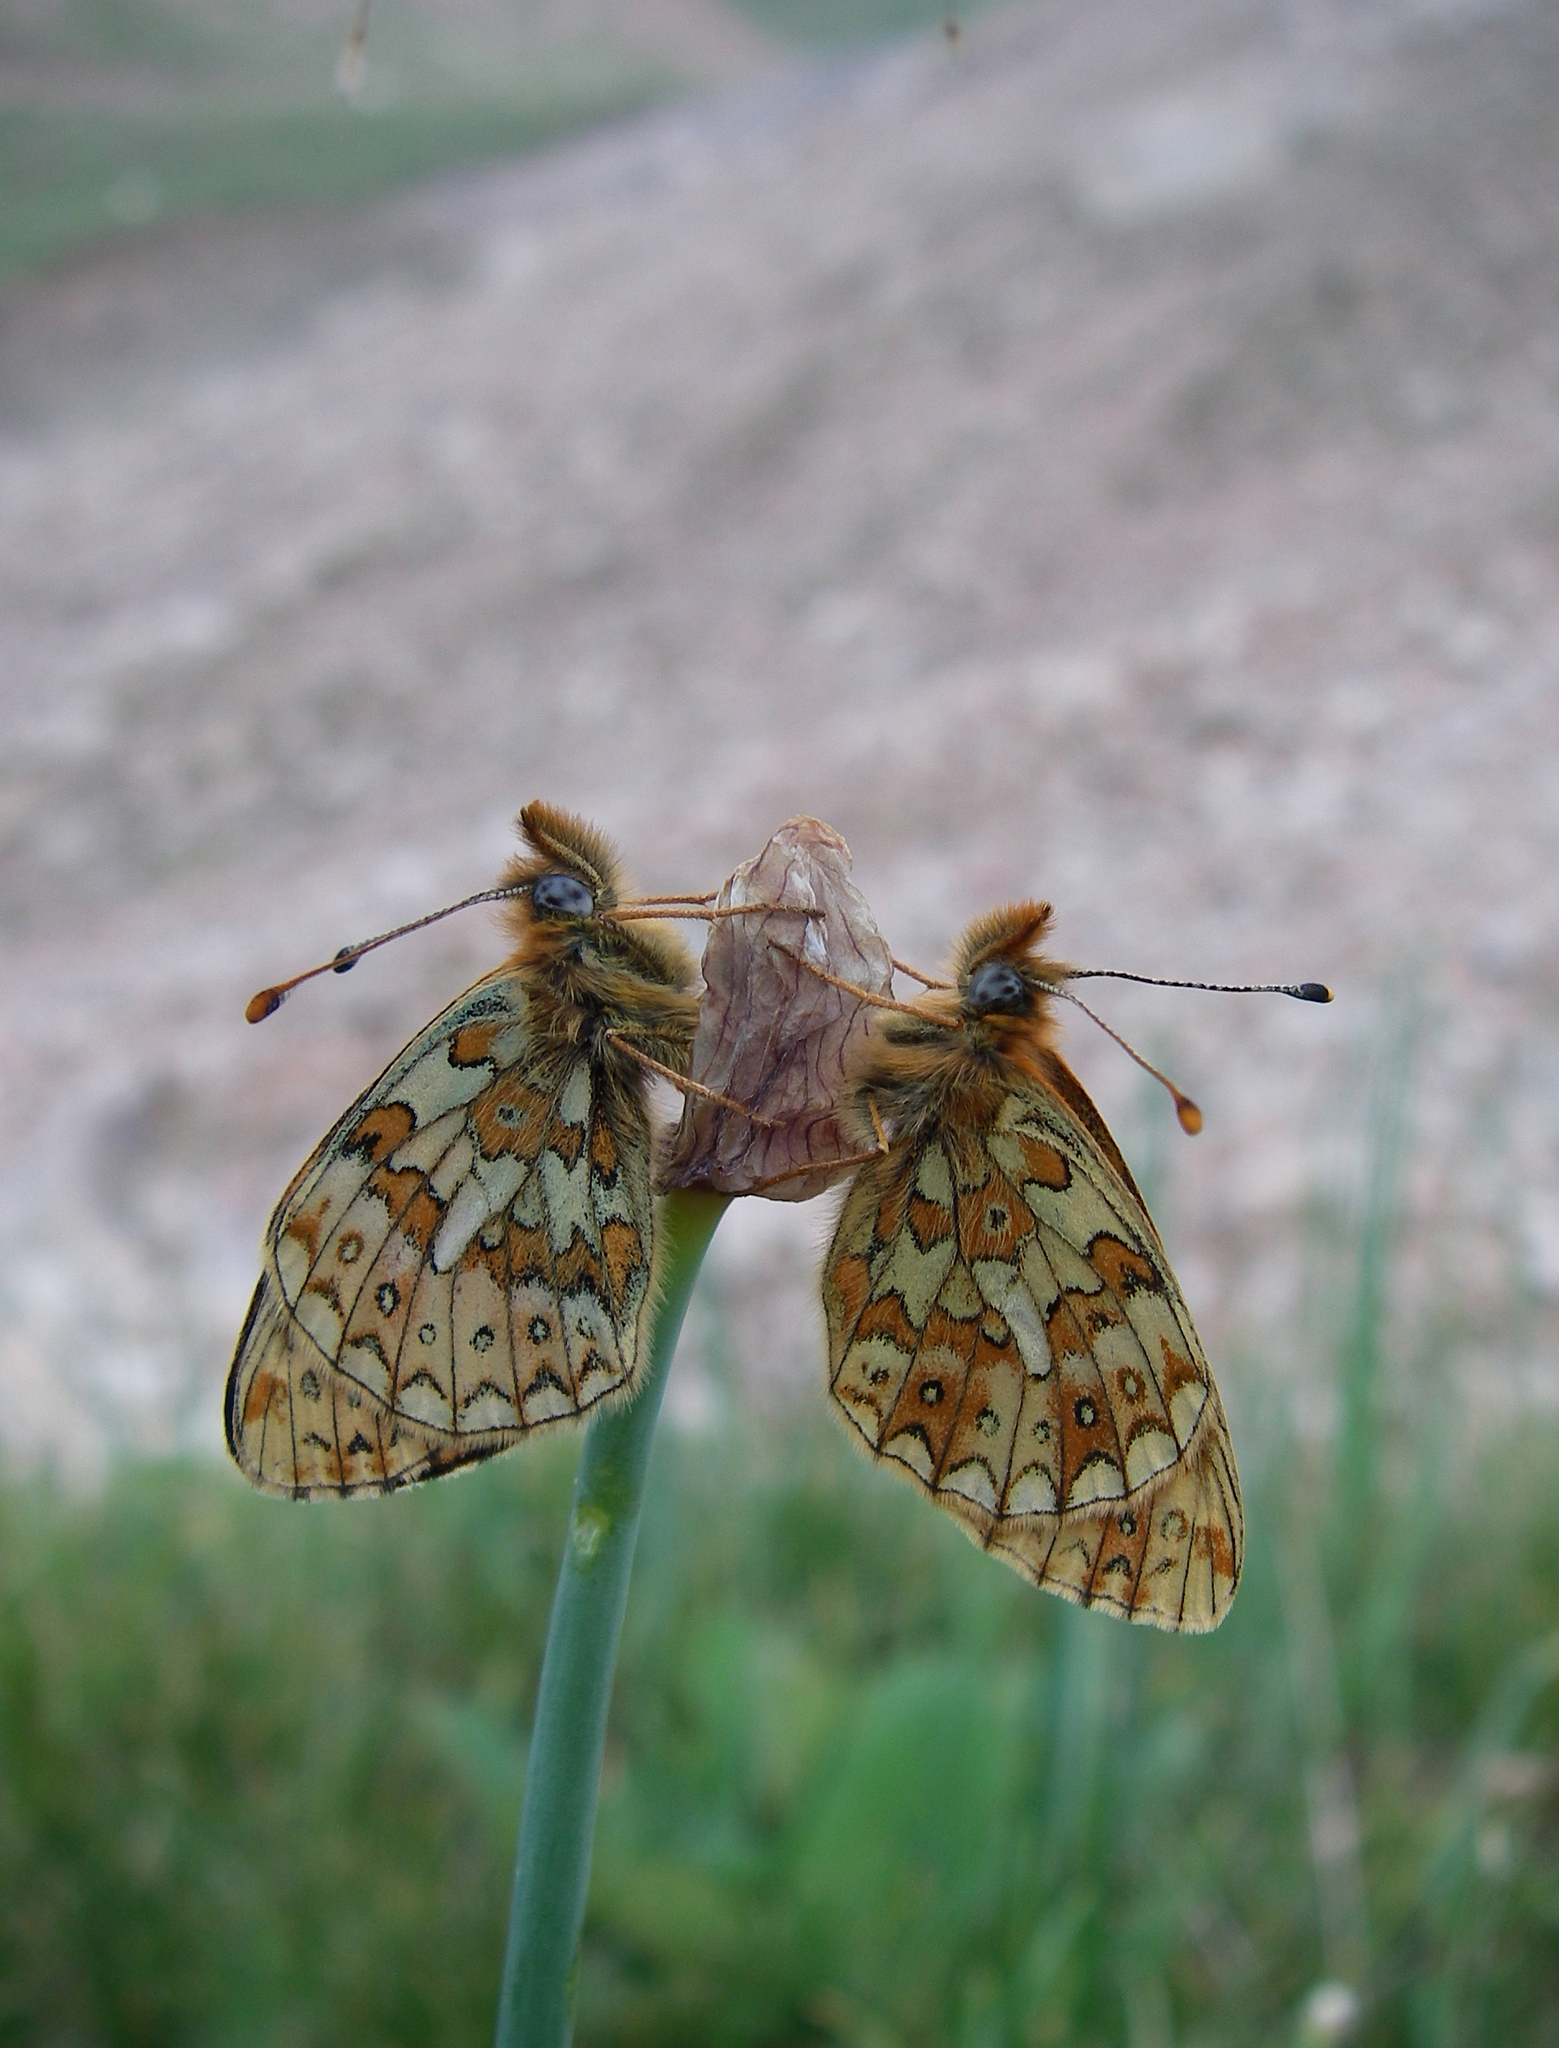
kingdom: Animalia
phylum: Arthropoda
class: Insecta
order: Lepidoptera
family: Nymphalidae
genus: Boloria
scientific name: Boloria erubescens
